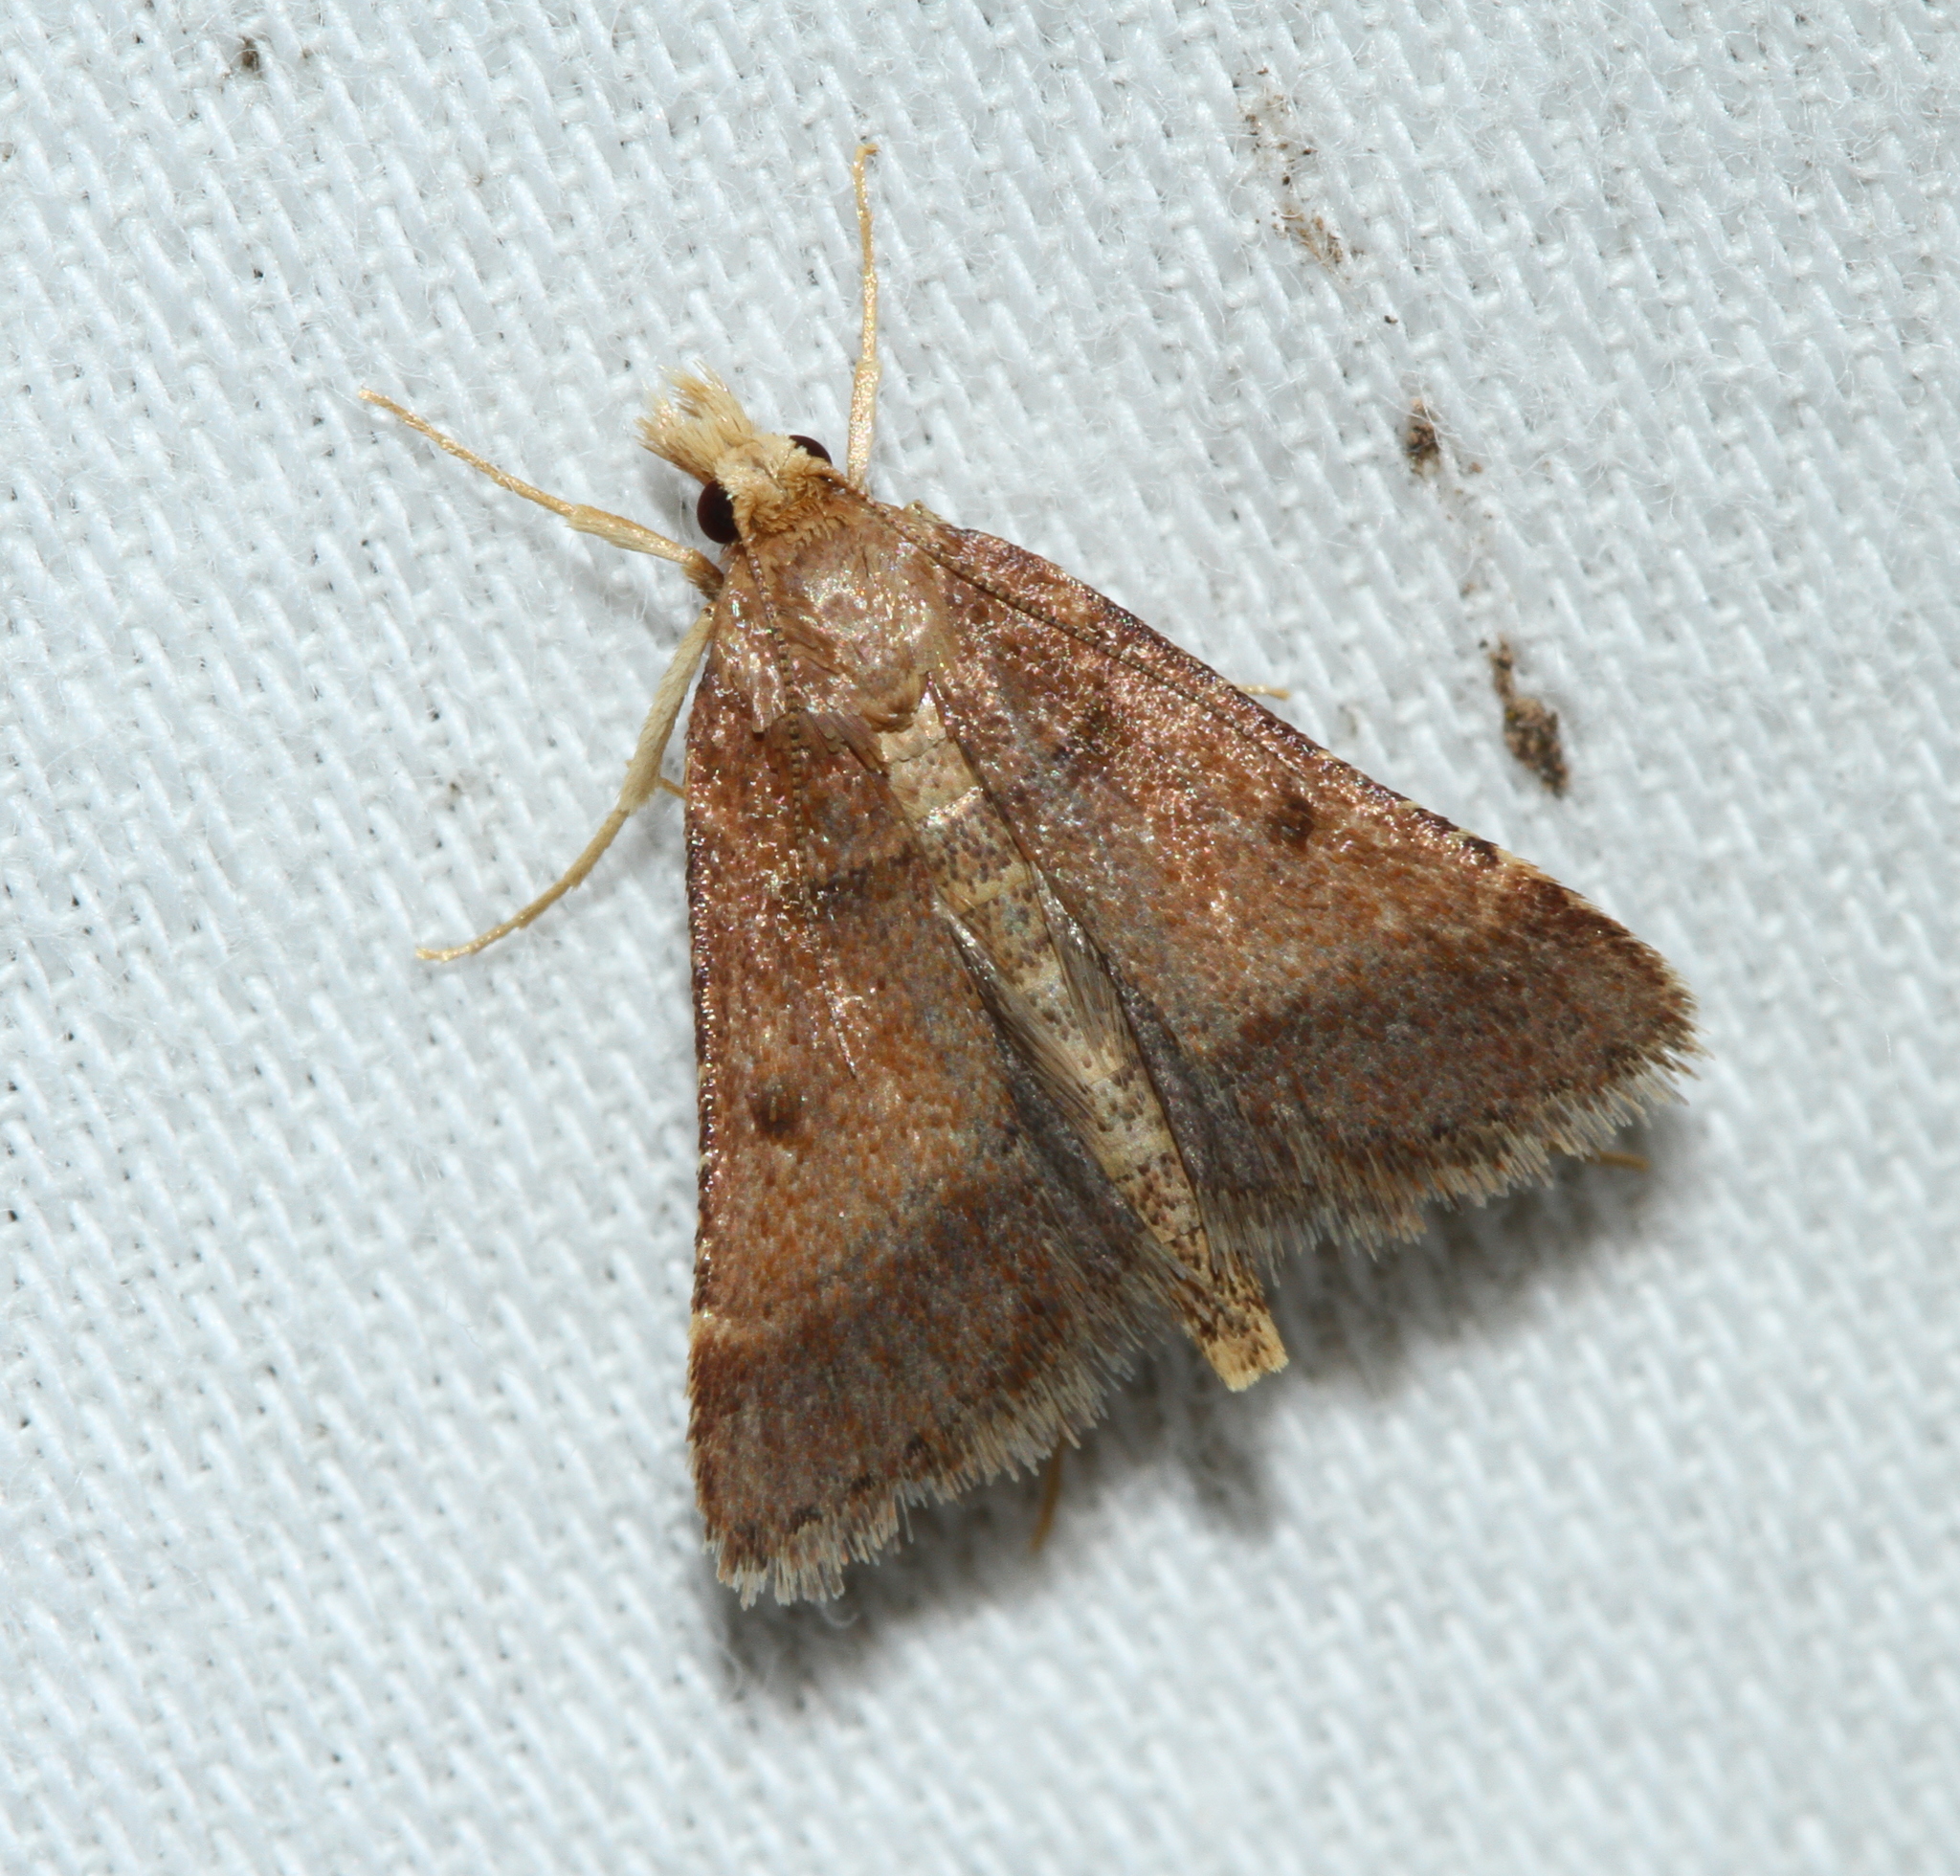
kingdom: Animalia
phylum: Arthropoda
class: Insecta
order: Lepidoptera
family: Pyralidae
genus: Stemmatophora
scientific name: Stemmatophora brunnealis
